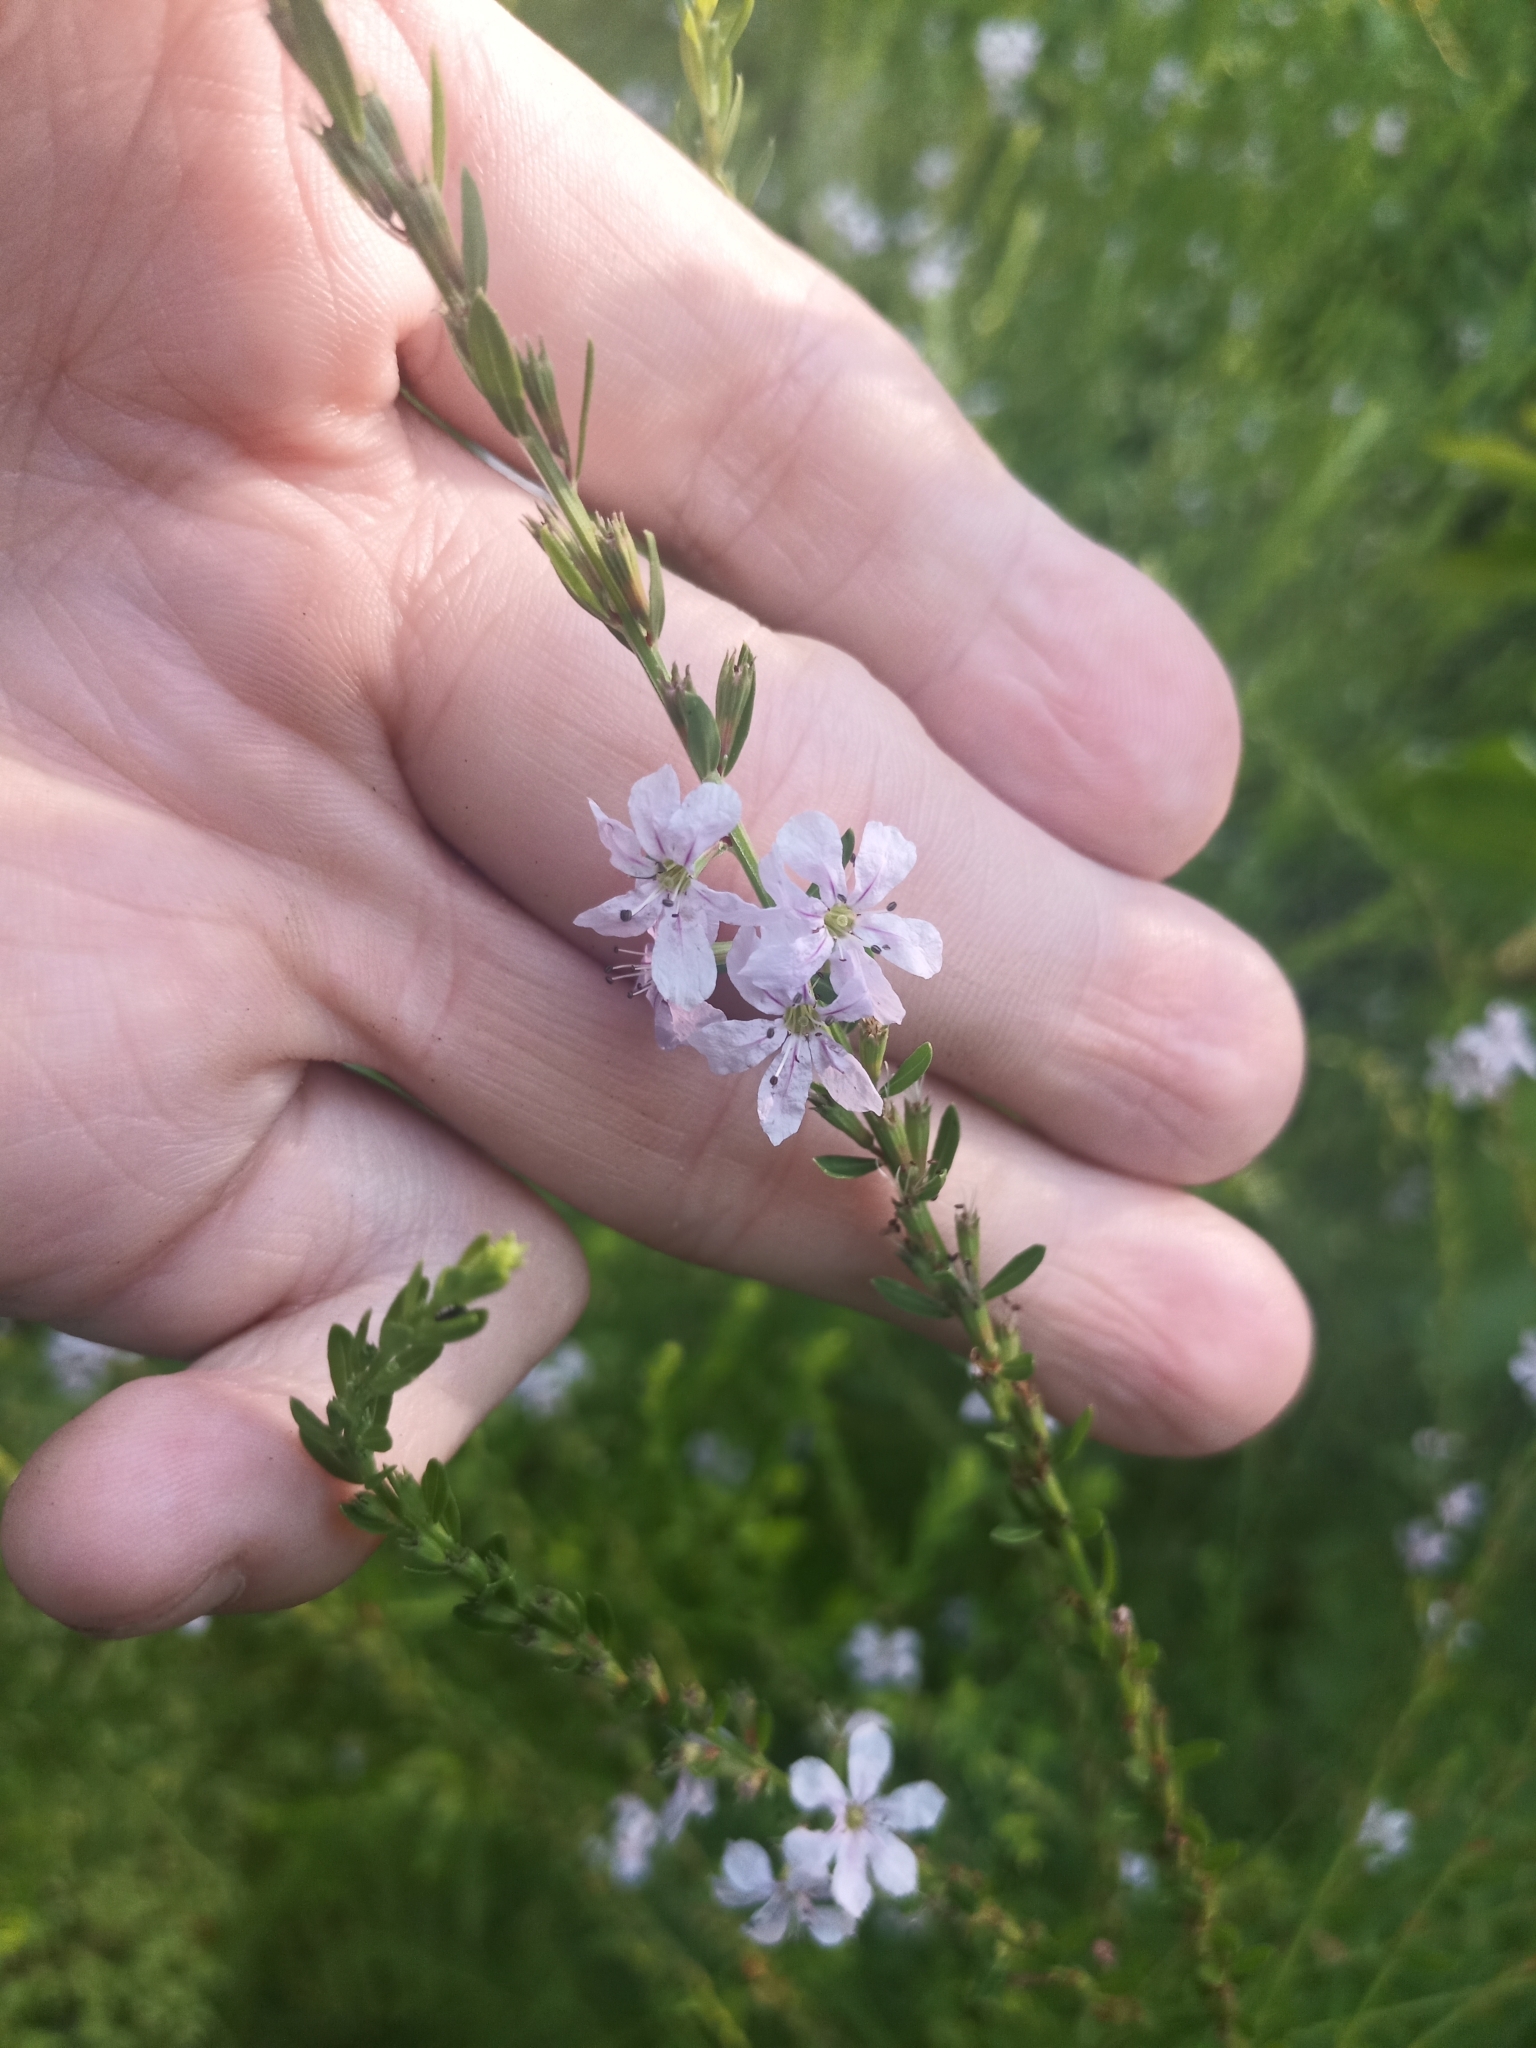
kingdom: Plantae
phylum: Tracheophyta
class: Magnoliopsida
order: Myrtales
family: Lythraceae
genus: Lythrum
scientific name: Lythrum alatum
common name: Winged loosestrife
